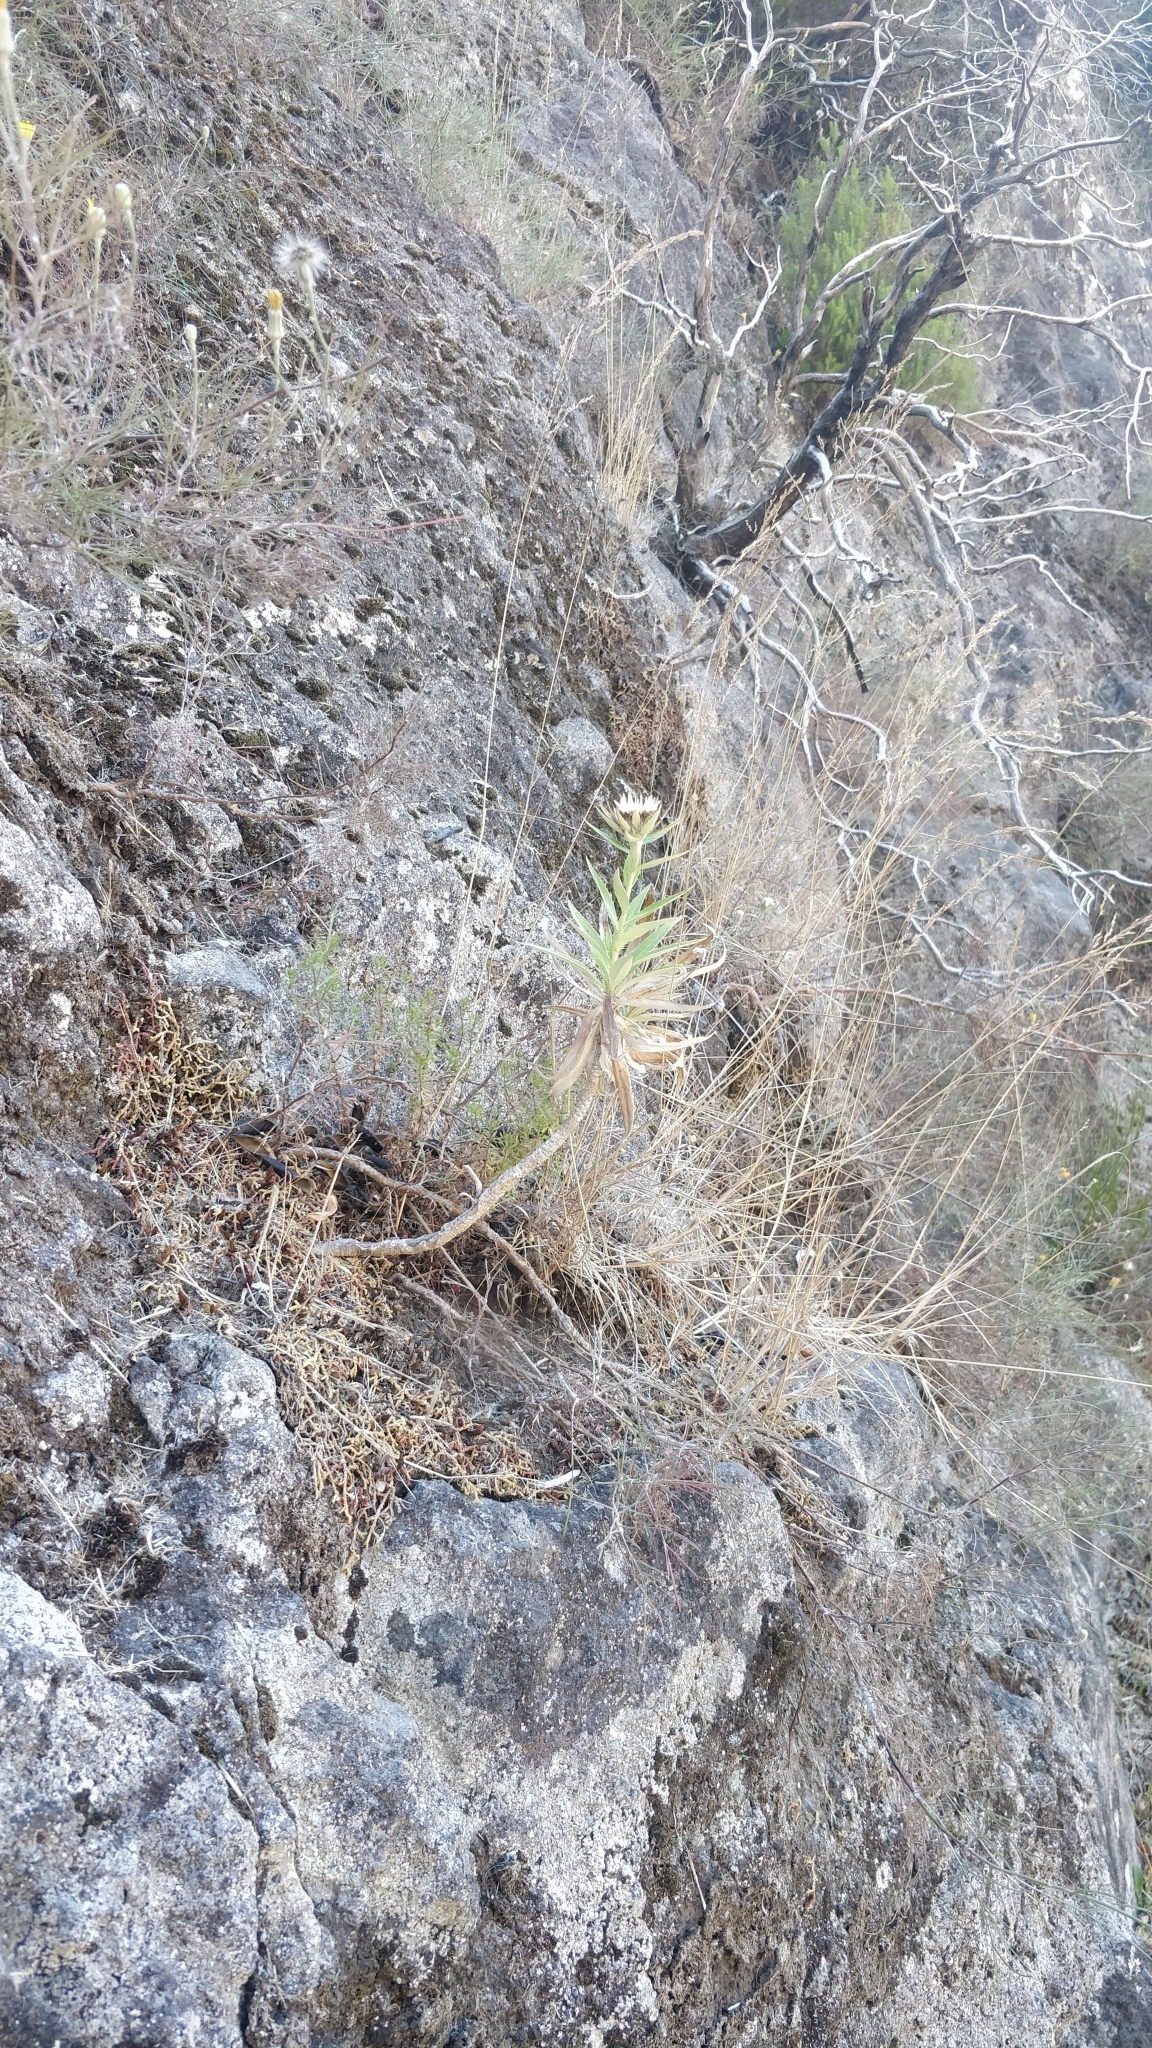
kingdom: Plantae
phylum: Tracheophyta
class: Magnoliopsida
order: Asterales
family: Asteraceae
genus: Carlina
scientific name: Carlina salicifolia
